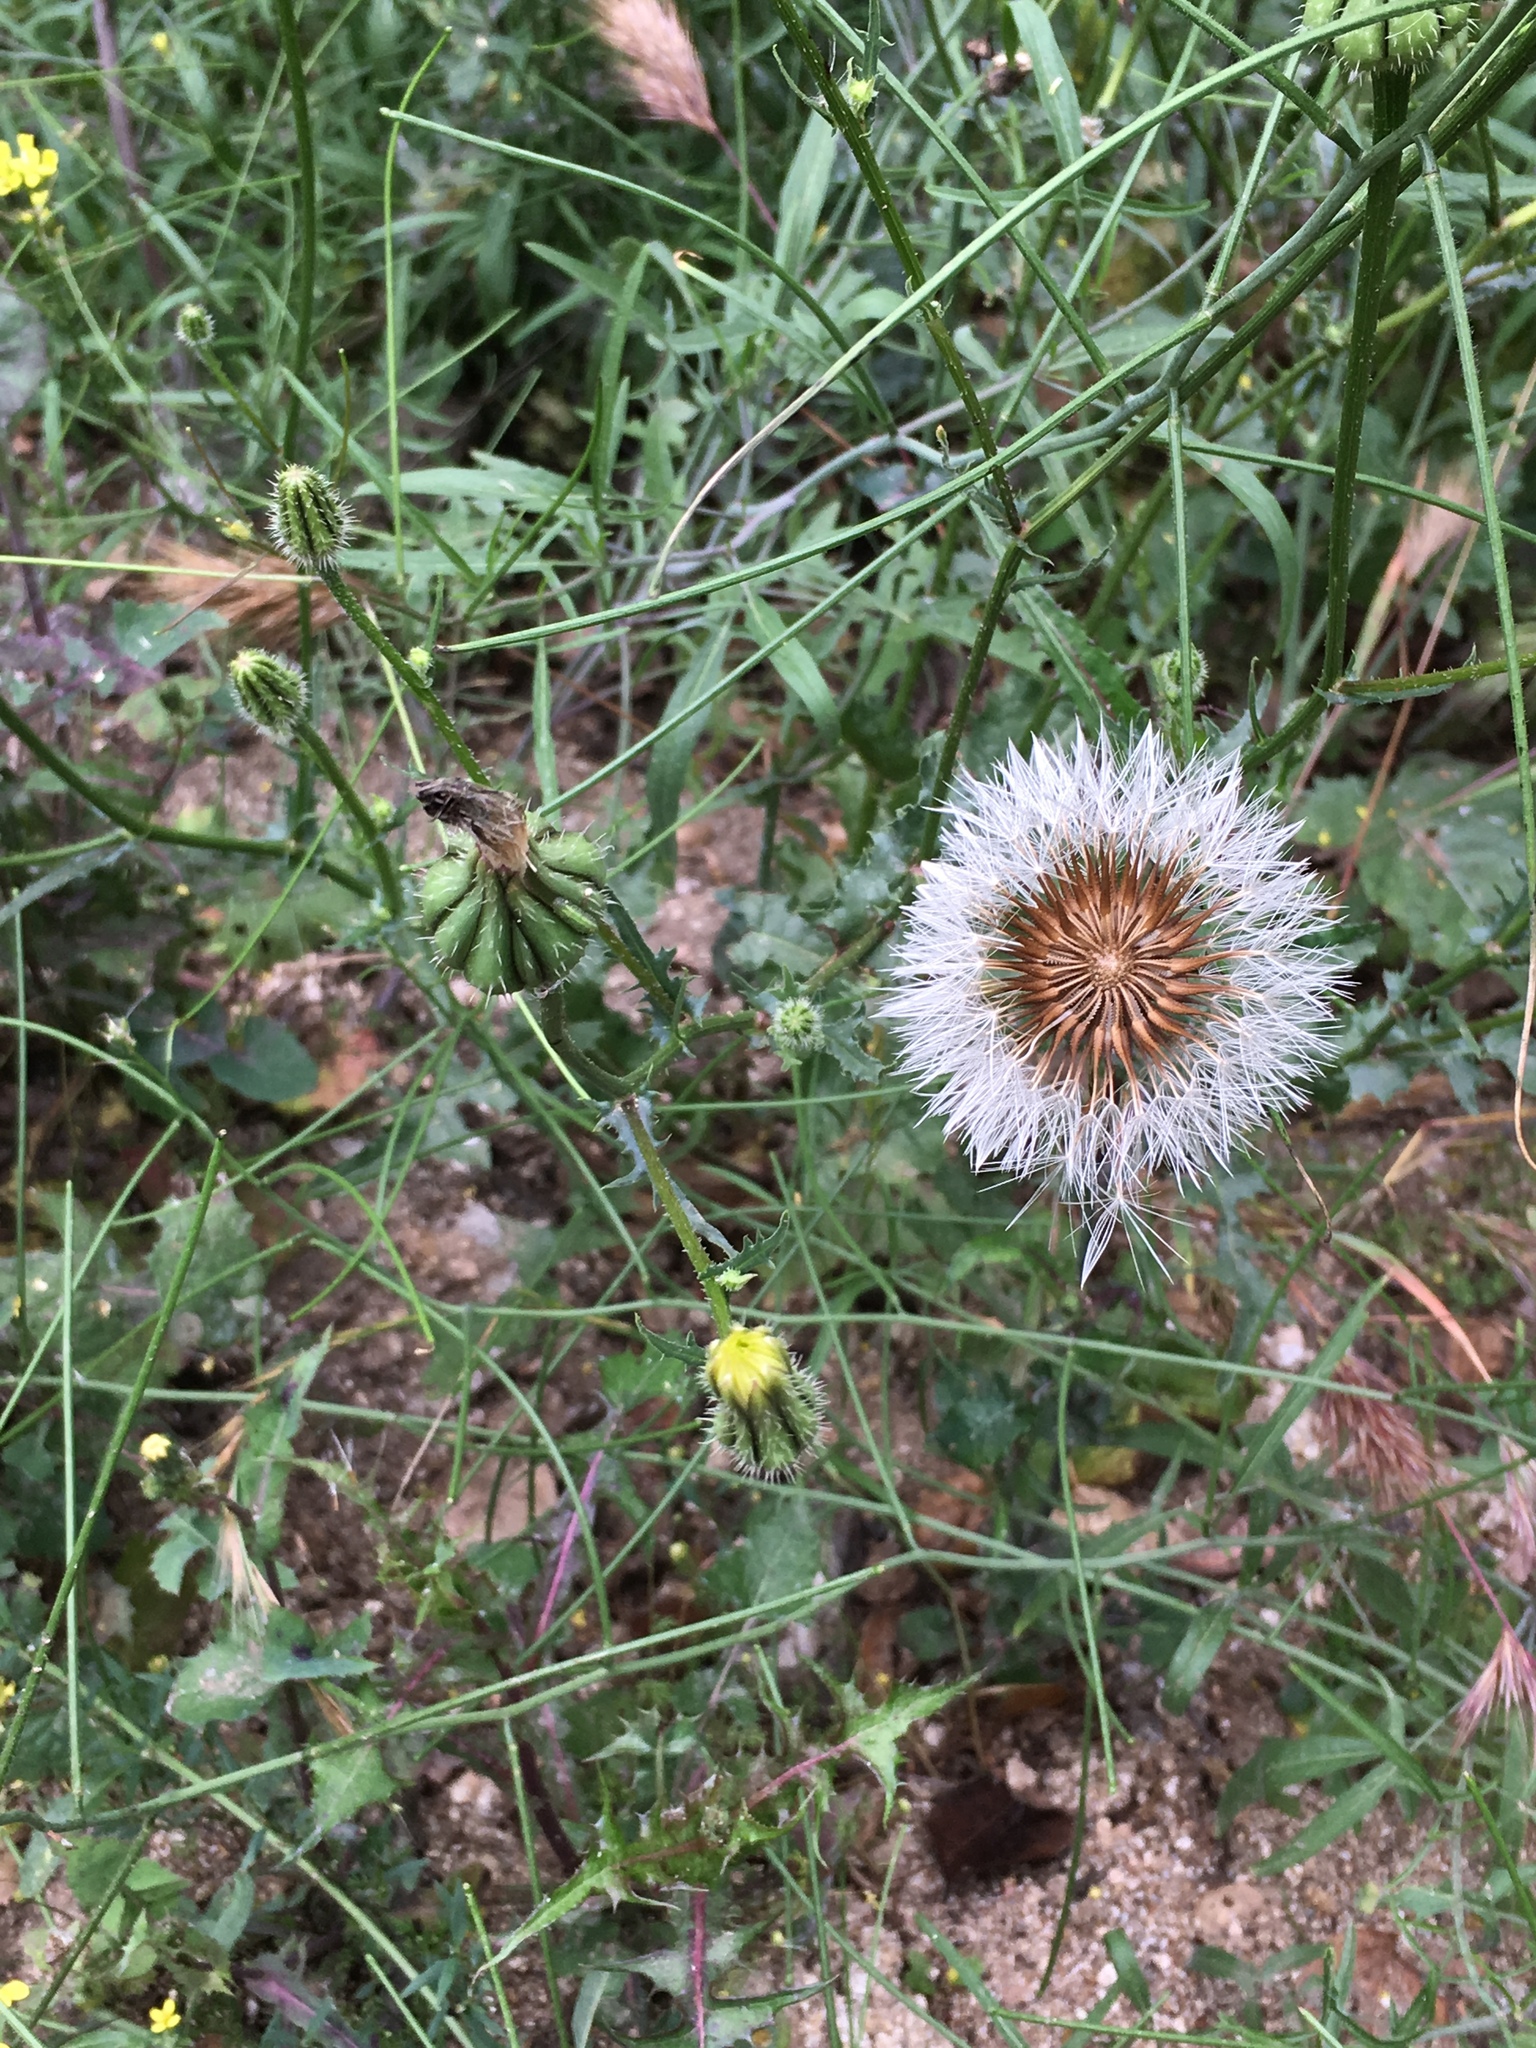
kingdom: Plantae
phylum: Tracheophyta
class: Magnoliopsida
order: Asterales
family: Asteraceae
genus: Urospermum
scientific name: Urospermum picroides
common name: False hawkbit
